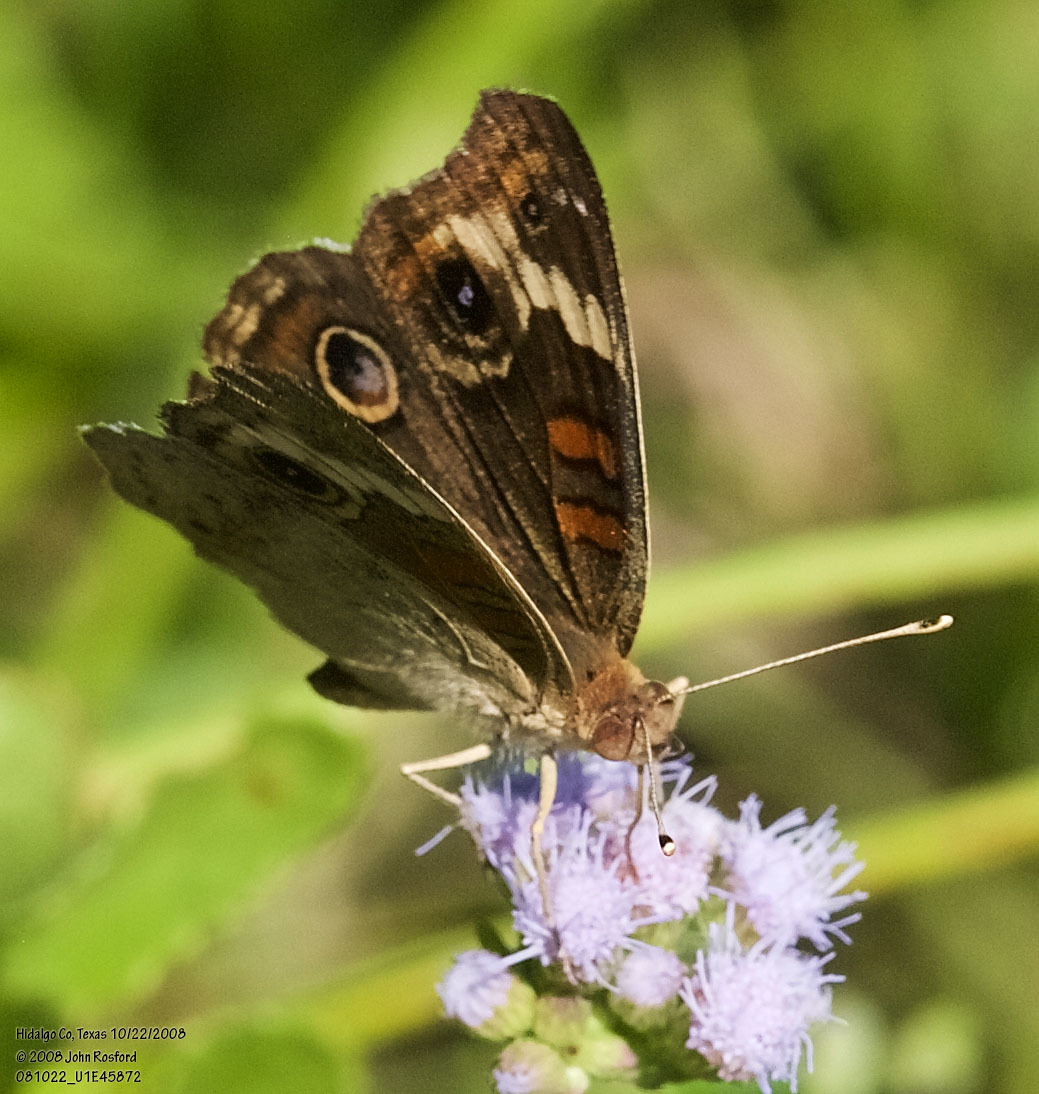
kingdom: Animalia
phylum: Arthropoda
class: Insecta
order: Lepidoptera
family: Nymphalidae
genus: Junonia
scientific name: Junonia coenia
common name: Common buckeye
